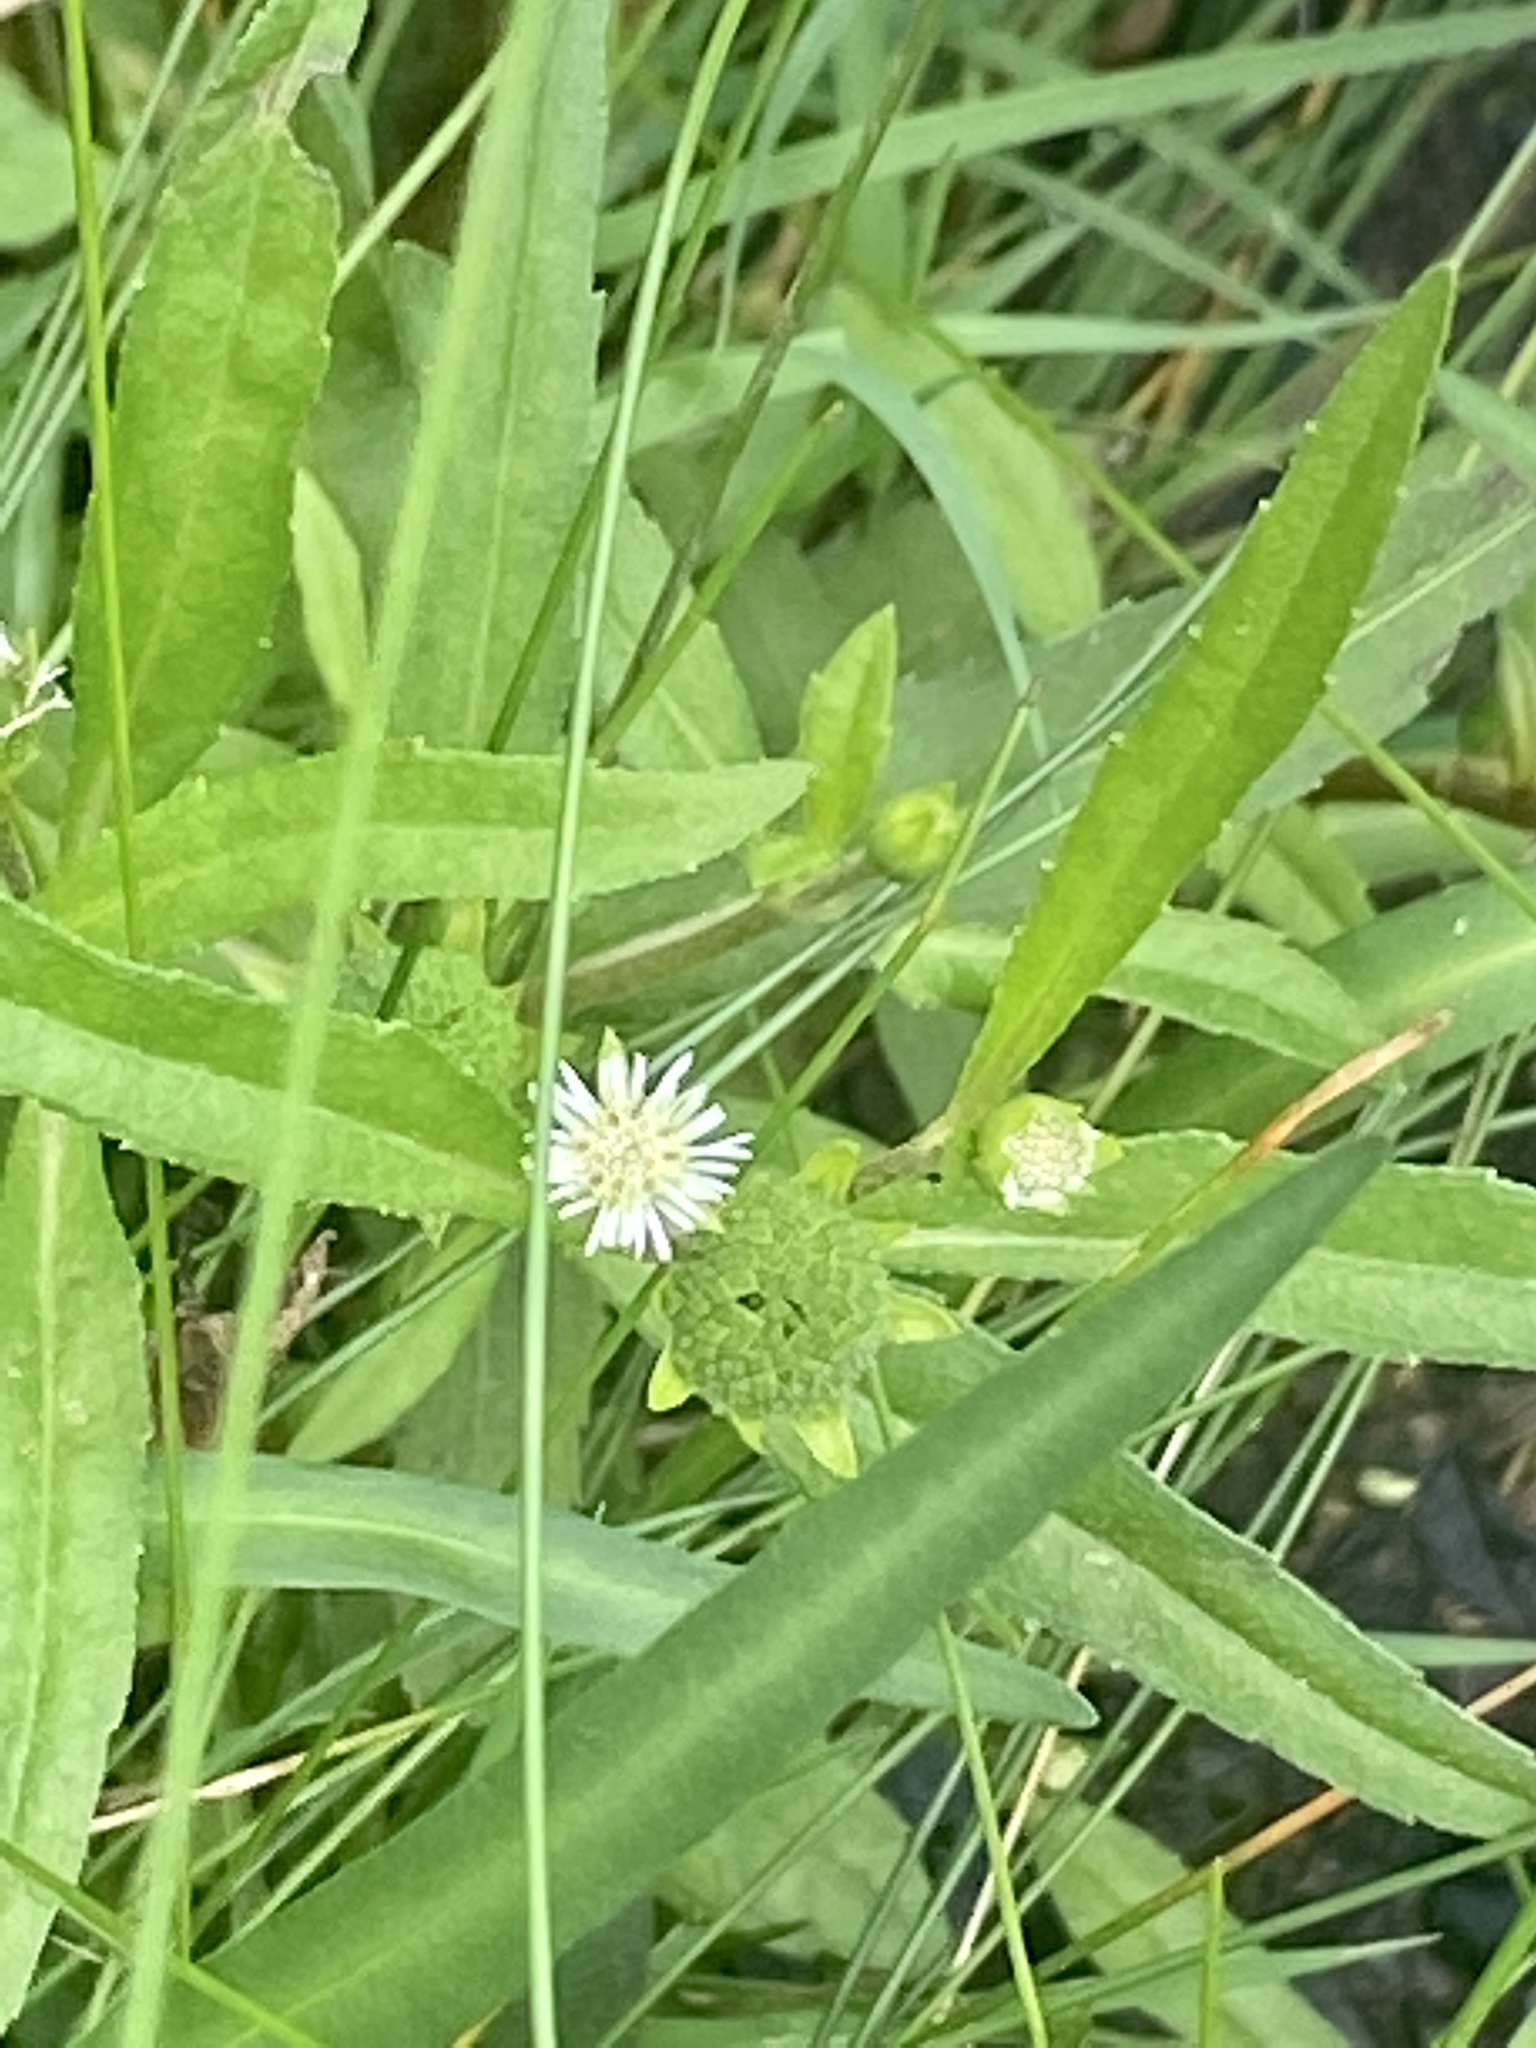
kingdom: Plantae
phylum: Tracheophyta
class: Magnoliopsida
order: Asterales
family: Asteraceae
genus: Eclipta
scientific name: Eclipta prostrata
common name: False daisy
